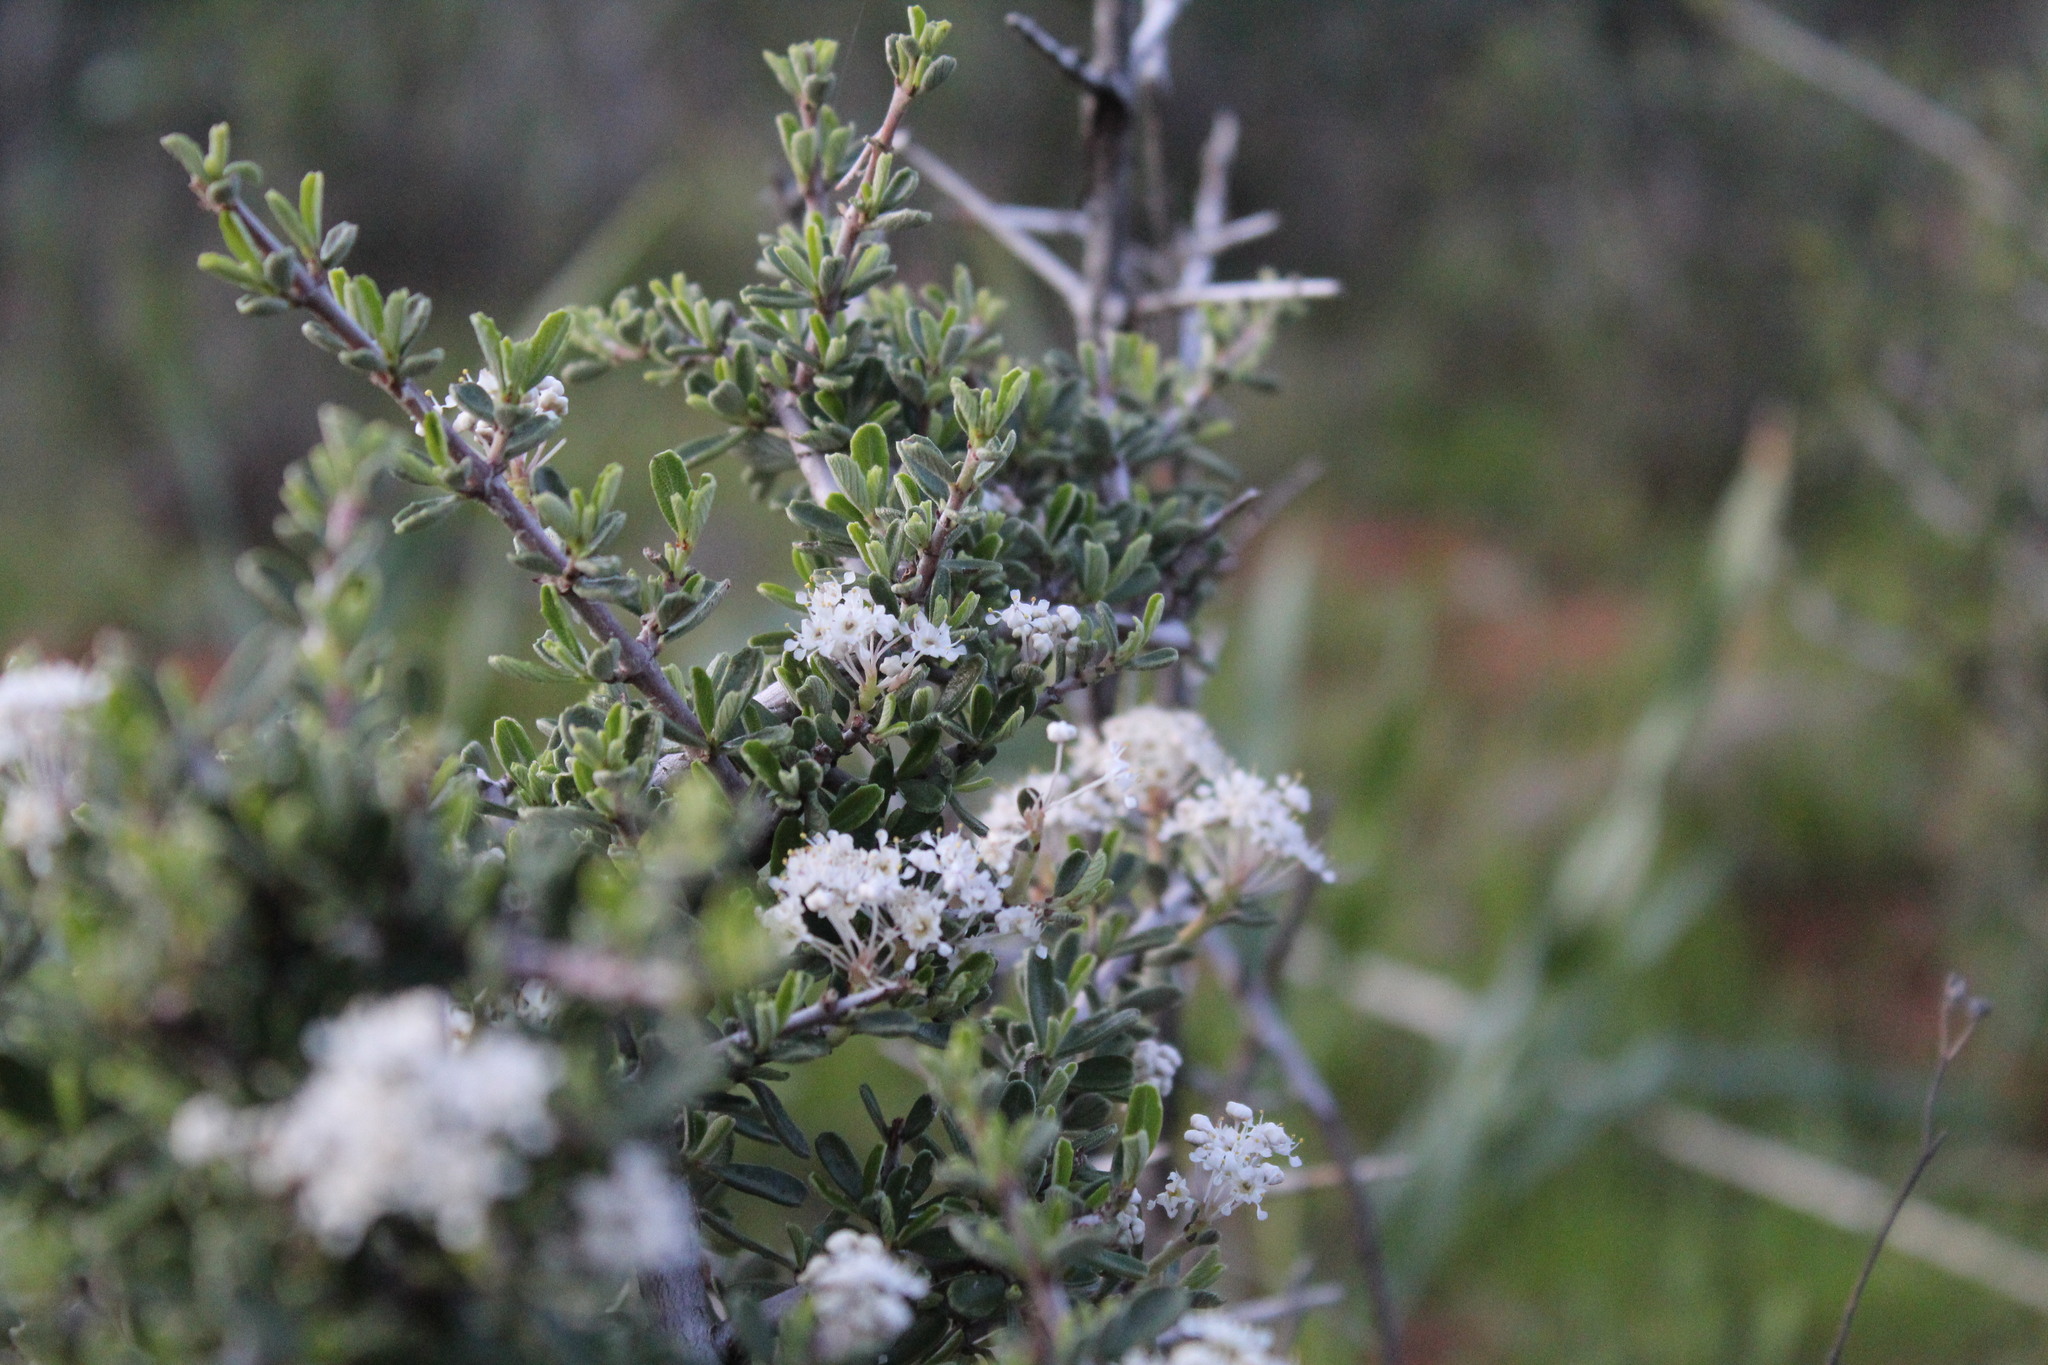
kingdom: Plantae
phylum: Tracheophyta
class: Magnoliopsida
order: Rosales
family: Rhamnaceae
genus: Ceanothus
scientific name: Ceanothus cuneatus
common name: Cuneate ceanothus
